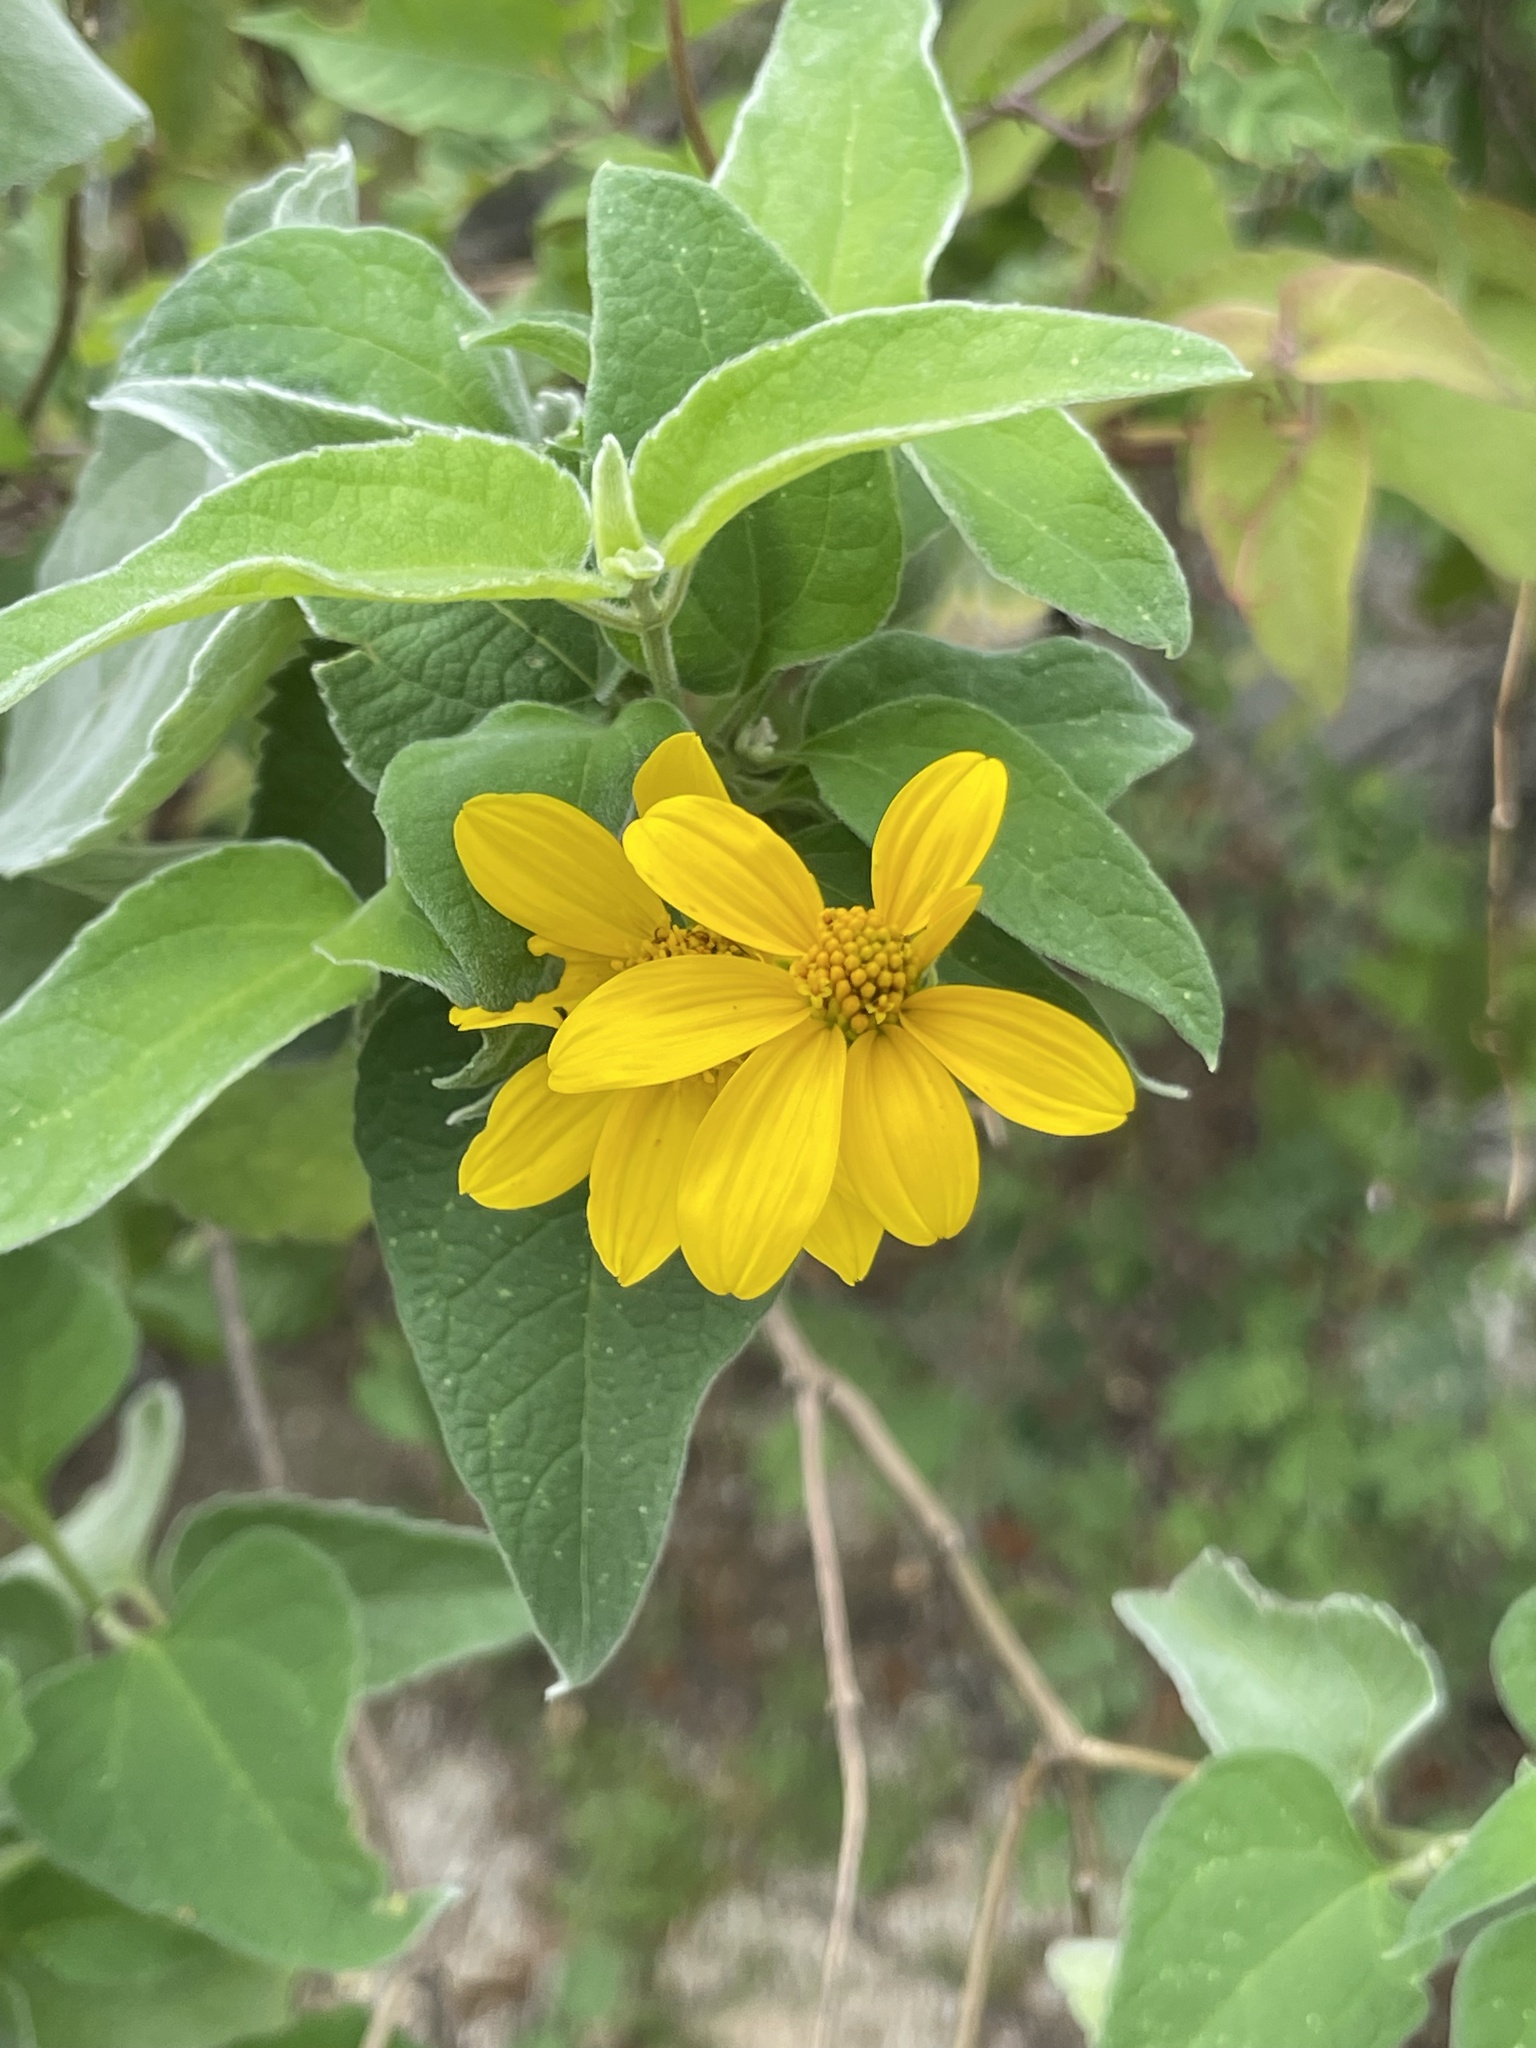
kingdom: Plantae
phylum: Tracheophyta
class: Magnoliopsida
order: Asterales
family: Asteraceae
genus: Bahiopsis
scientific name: Bahiopsis tomentosa
